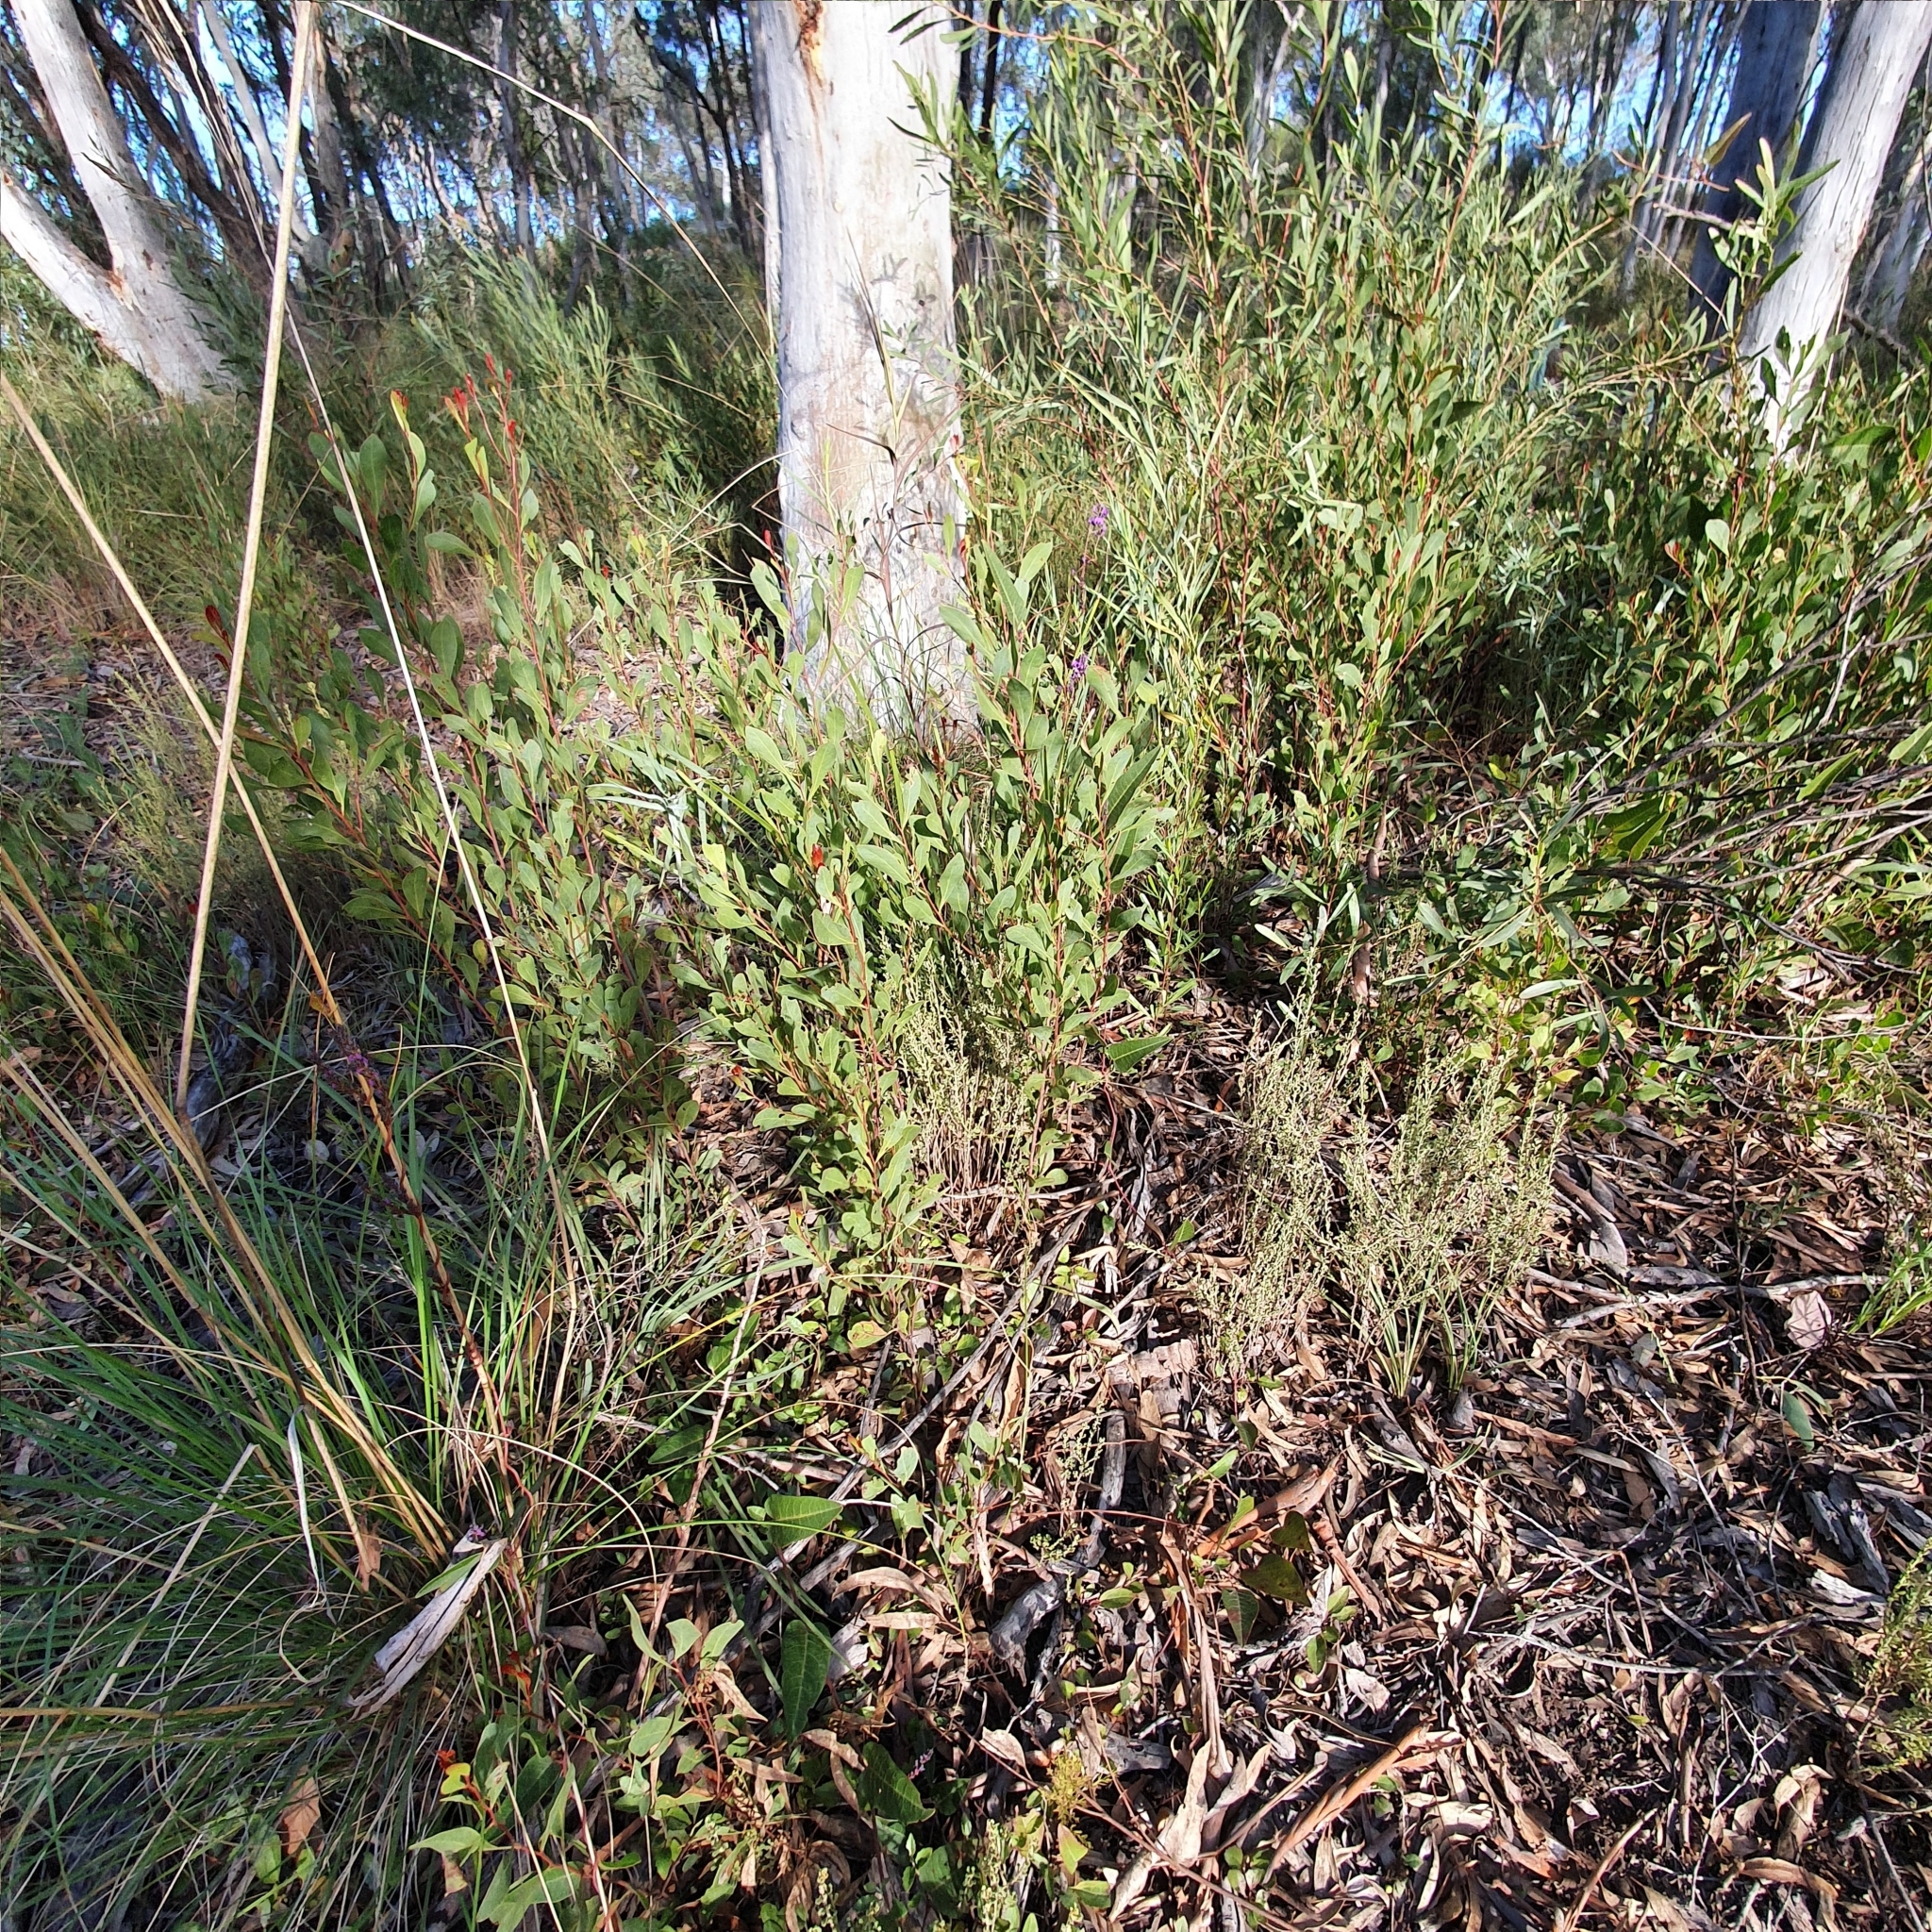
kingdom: Plantae
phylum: Tracheophyta
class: Magnoliopsida
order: Fabales
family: Fabaceae
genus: Acacia
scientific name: Acacia penninervis
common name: Hickory wattle
